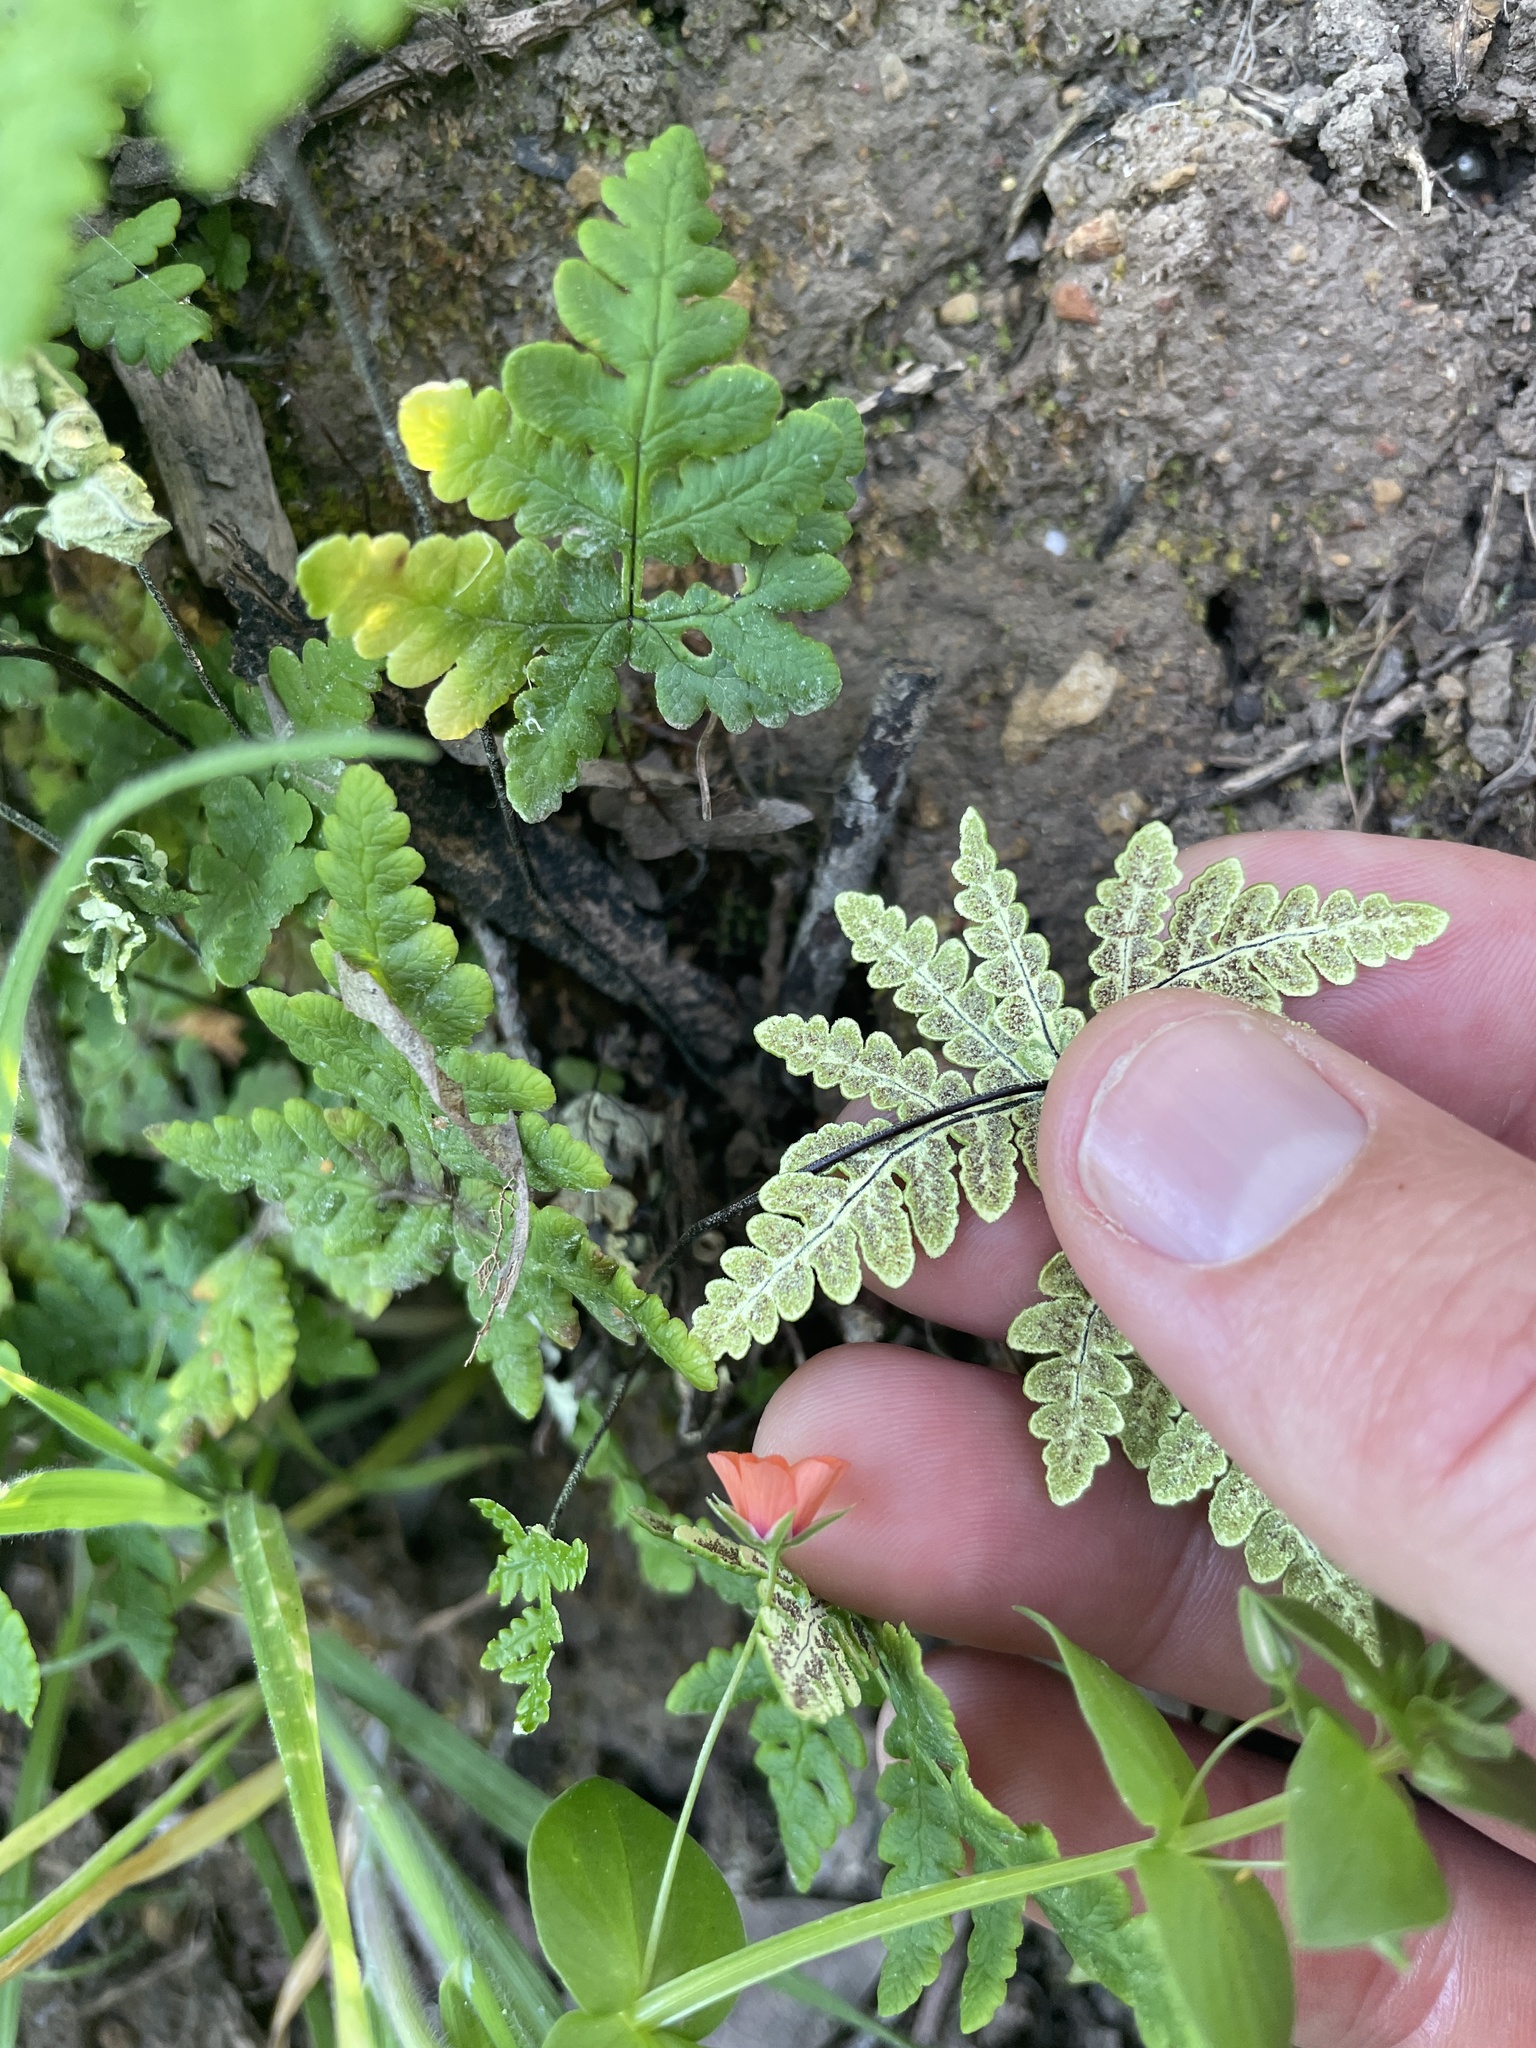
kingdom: Plantae
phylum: Tracheophyta
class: Polypodiopsida
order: Polypodiales
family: Pteridaceae
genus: Pentagramma
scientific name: Pentagramma triangularis
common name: Gold fern
